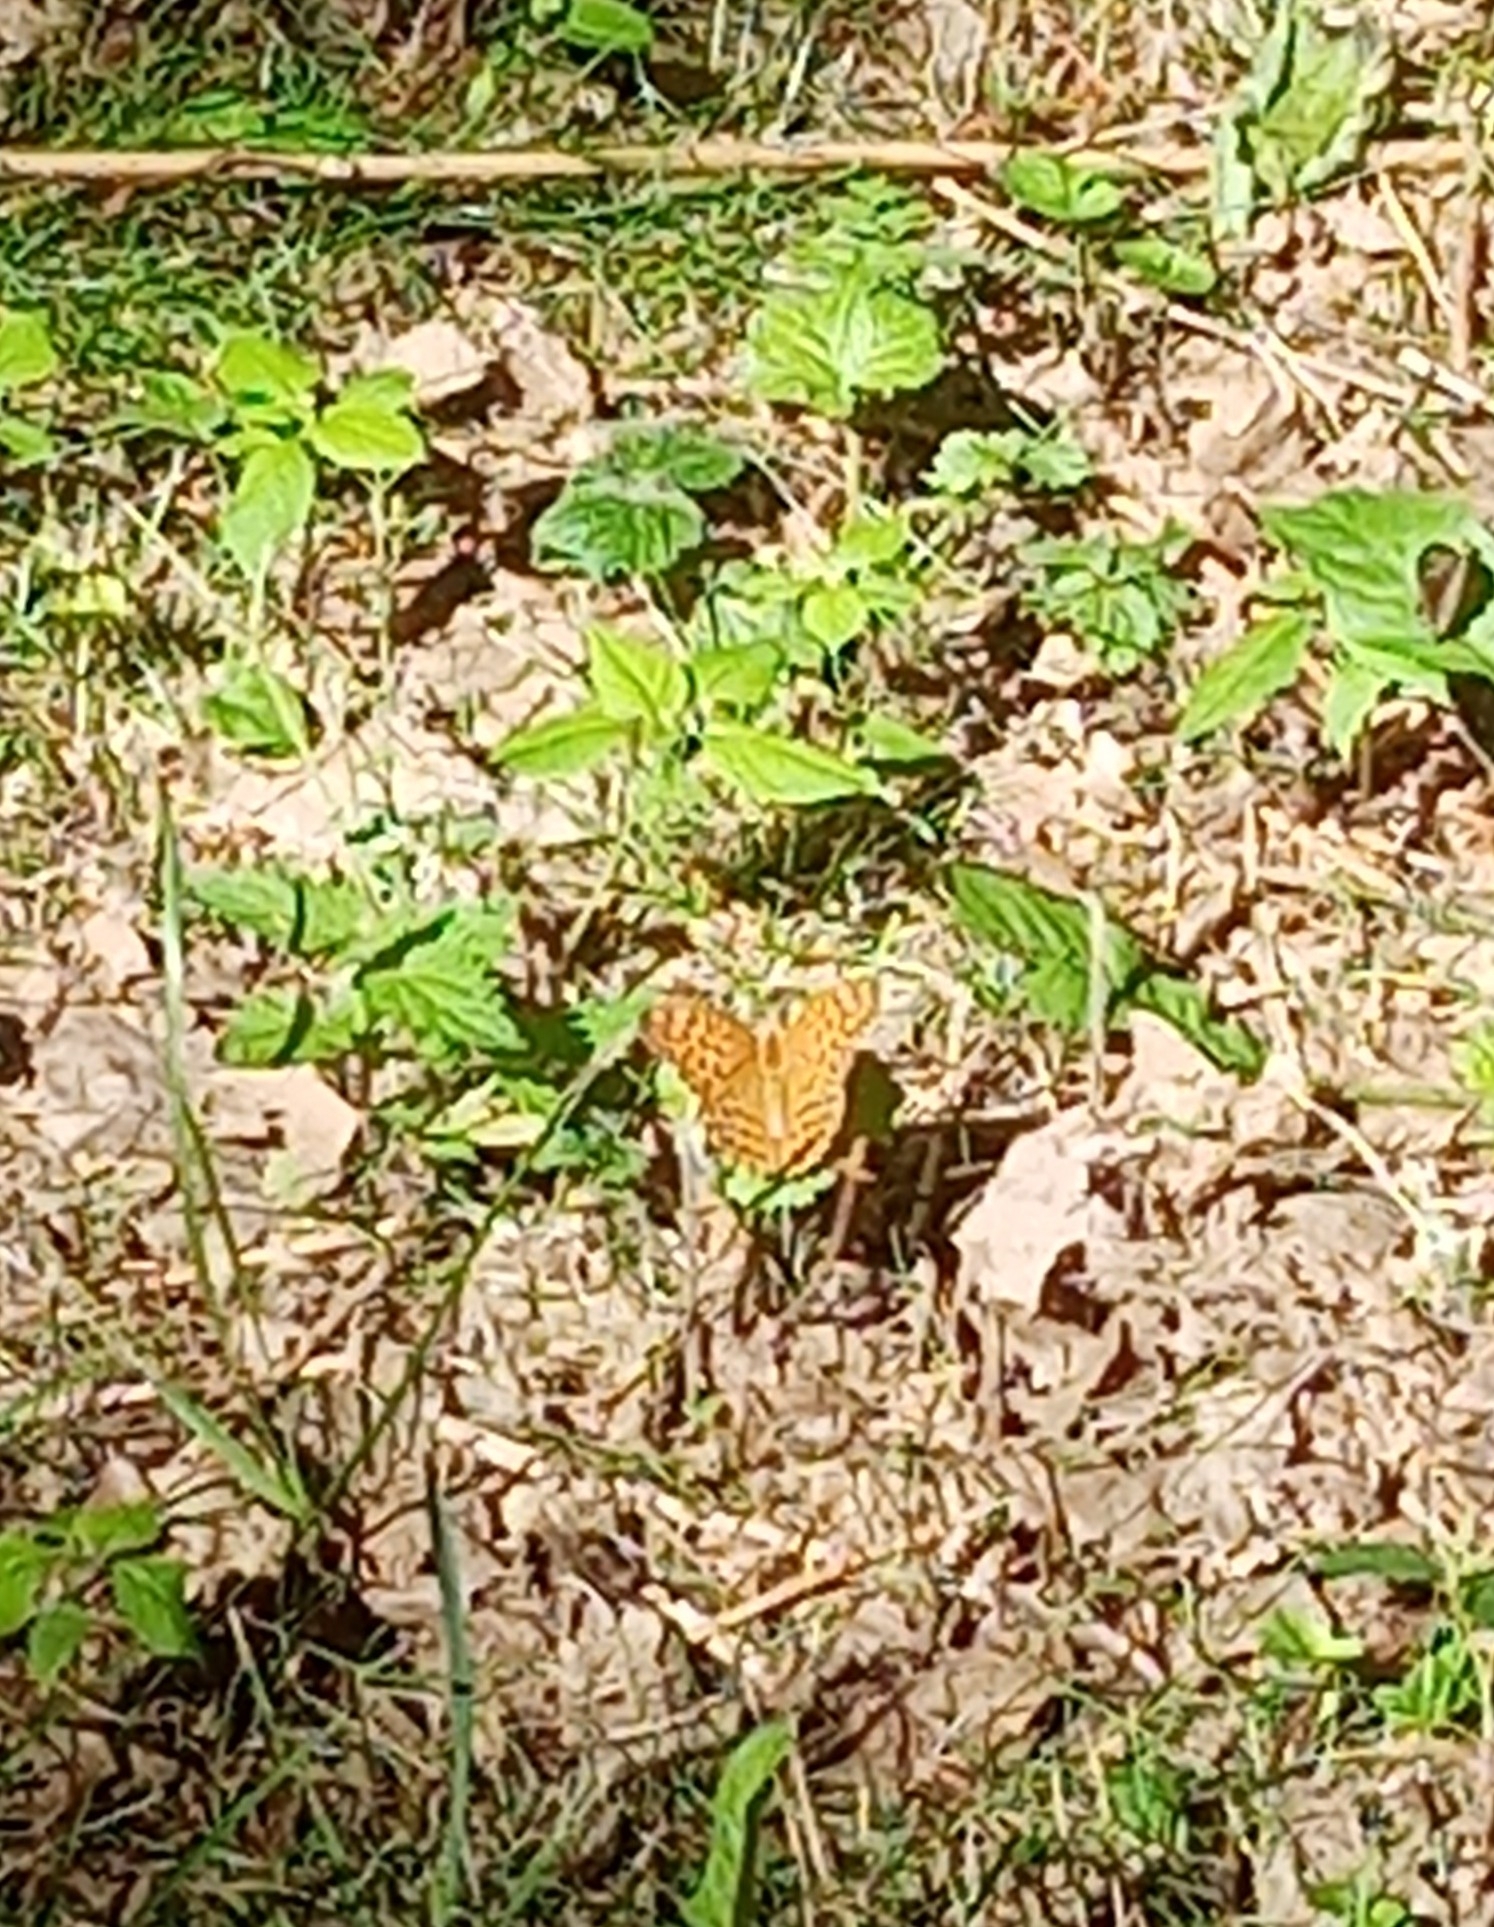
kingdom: Animalia
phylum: Arthropoda
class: Insecta
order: Lepidoptera
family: Nymphalidae
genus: Argynnis
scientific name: Argynnis paphia
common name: Silver-washed fritillary
